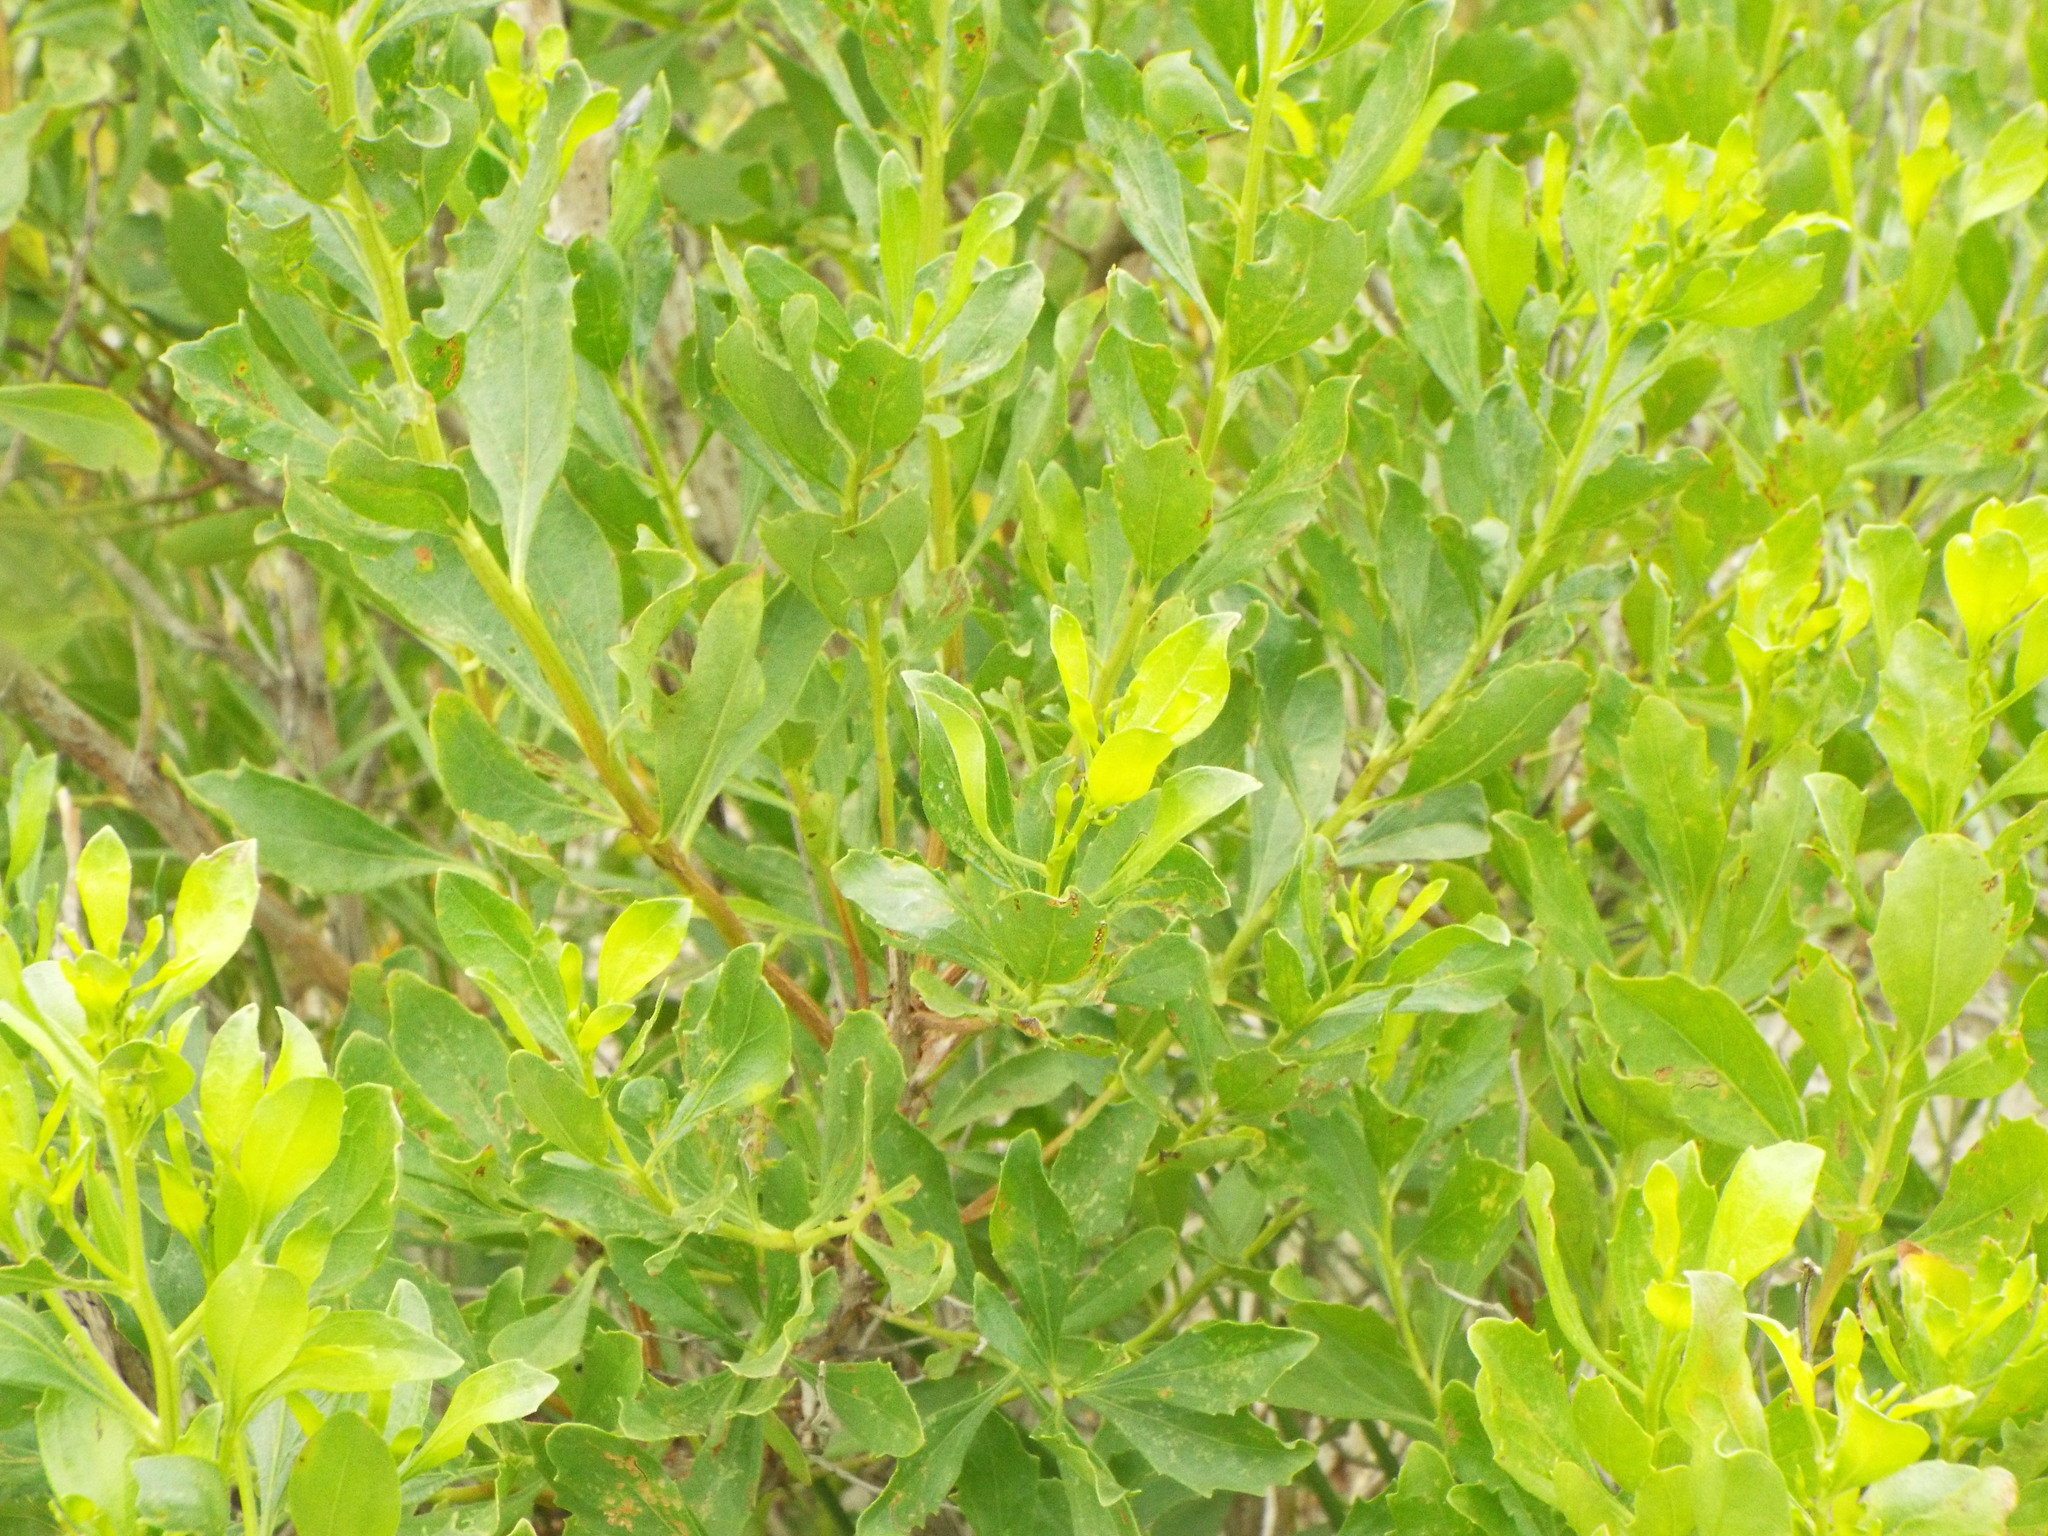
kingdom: Plantae
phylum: Tracheophyta
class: Magnoliopsida
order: Asterales
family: Asteraceae
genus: Baccharis
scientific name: Baccharis halimifolia
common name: Eastern baccharis
